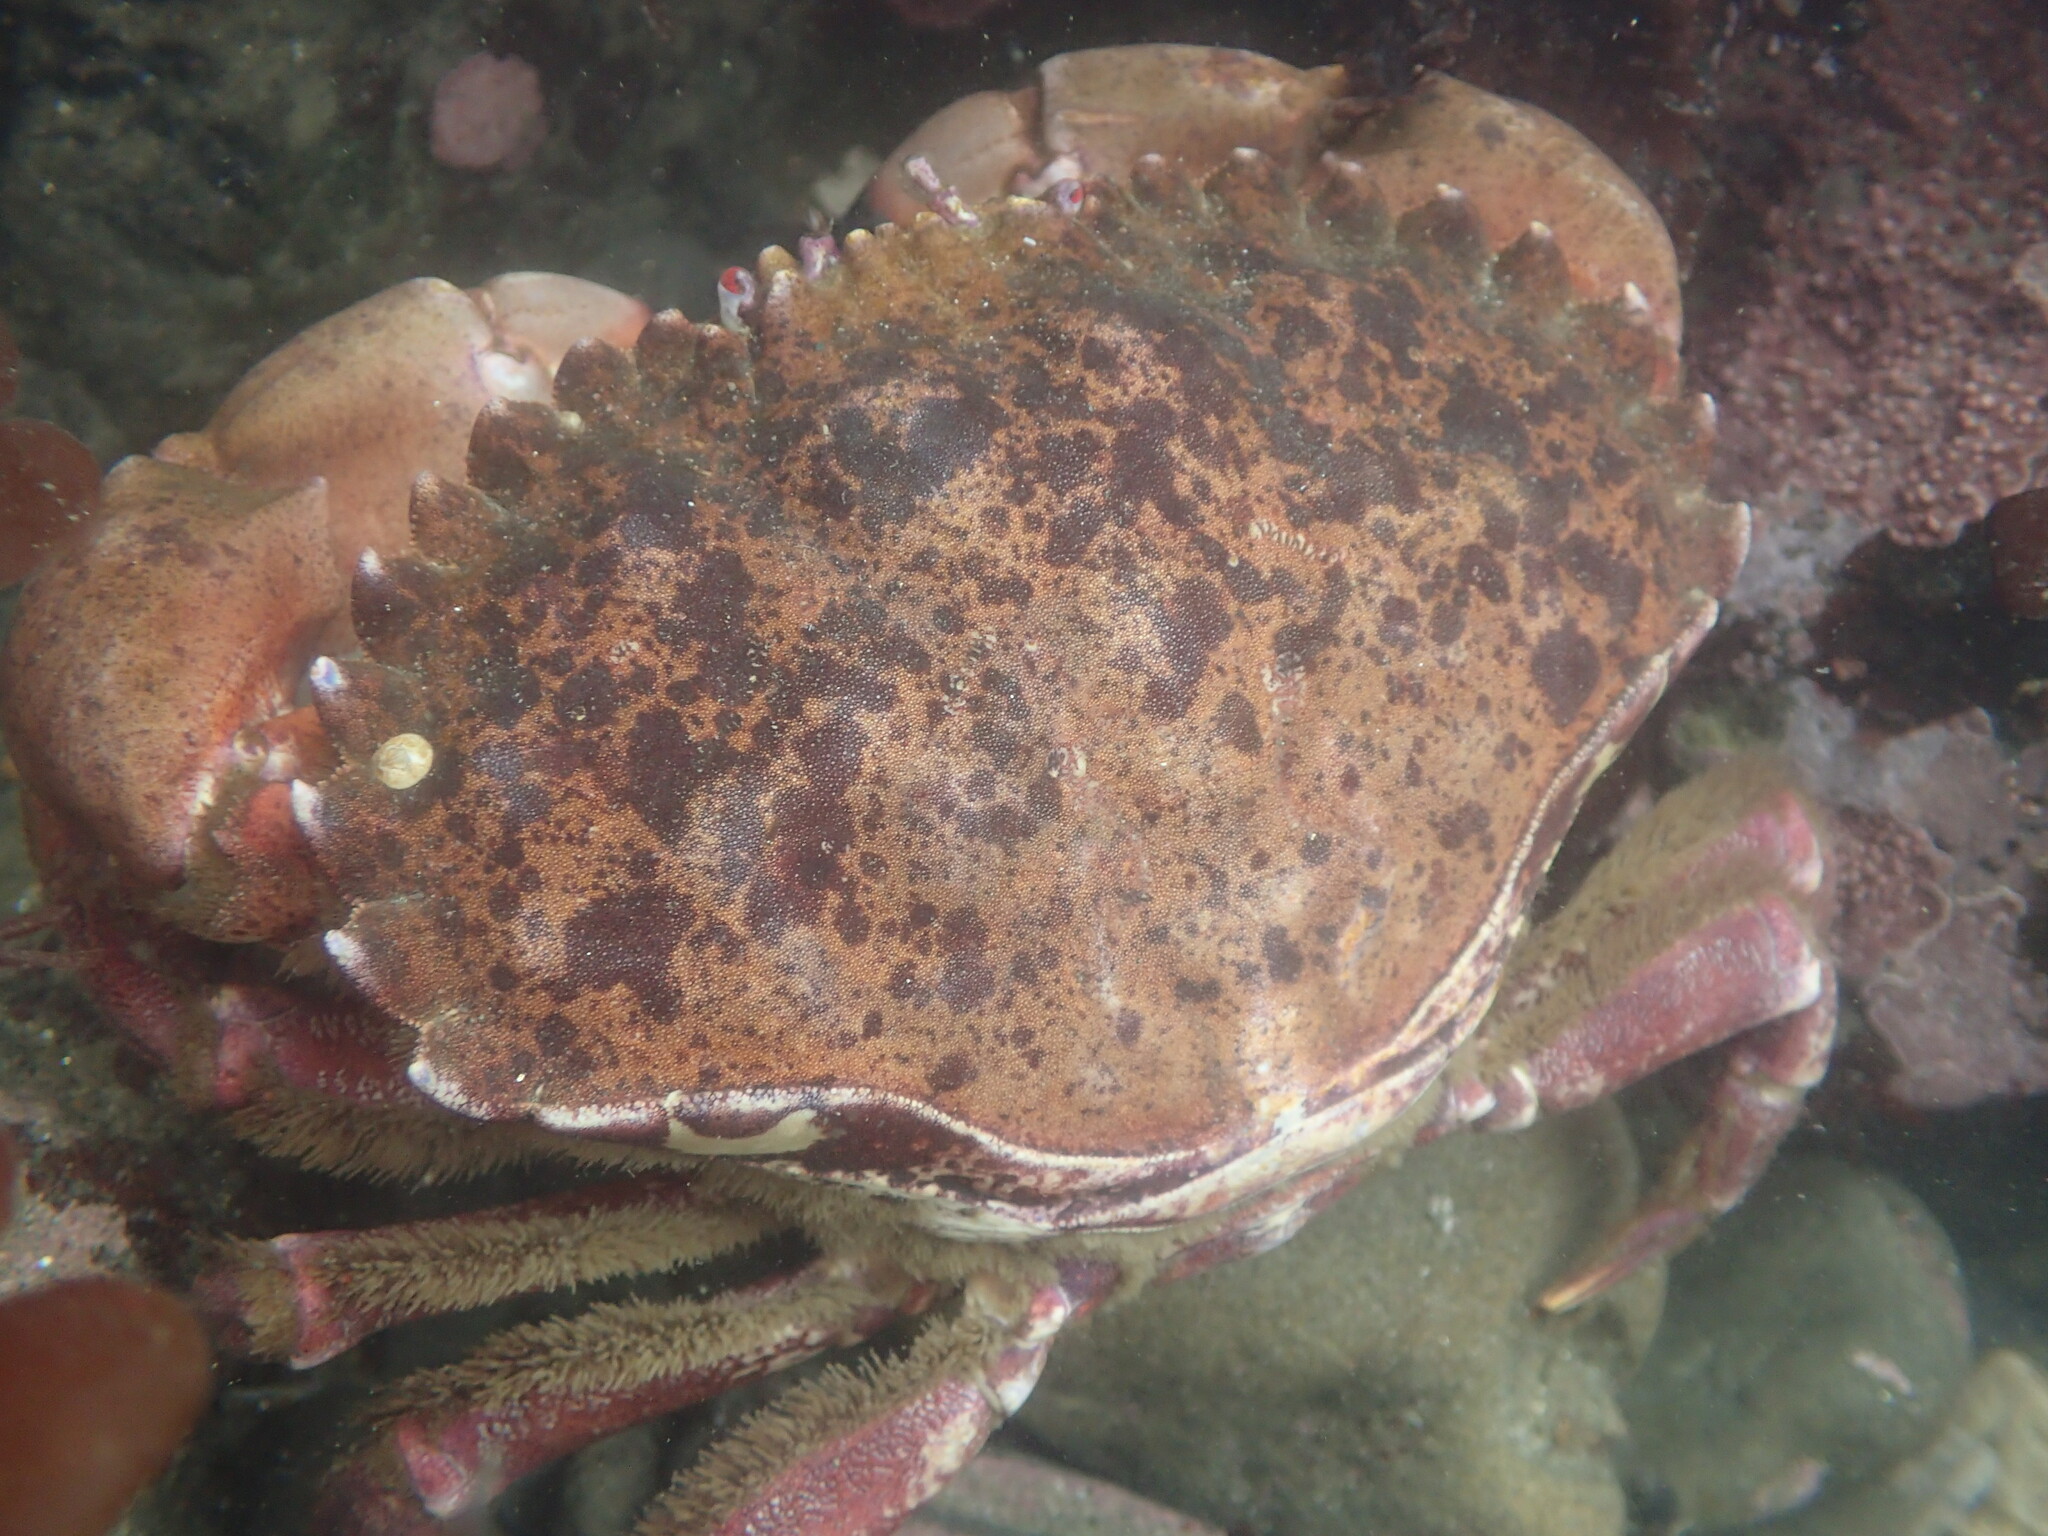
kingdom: Animalia
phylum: Arthropoda
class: Malacostraca
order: Decapoda
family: Cancridae
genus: Romaleon
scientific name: Romaleon antennarium
